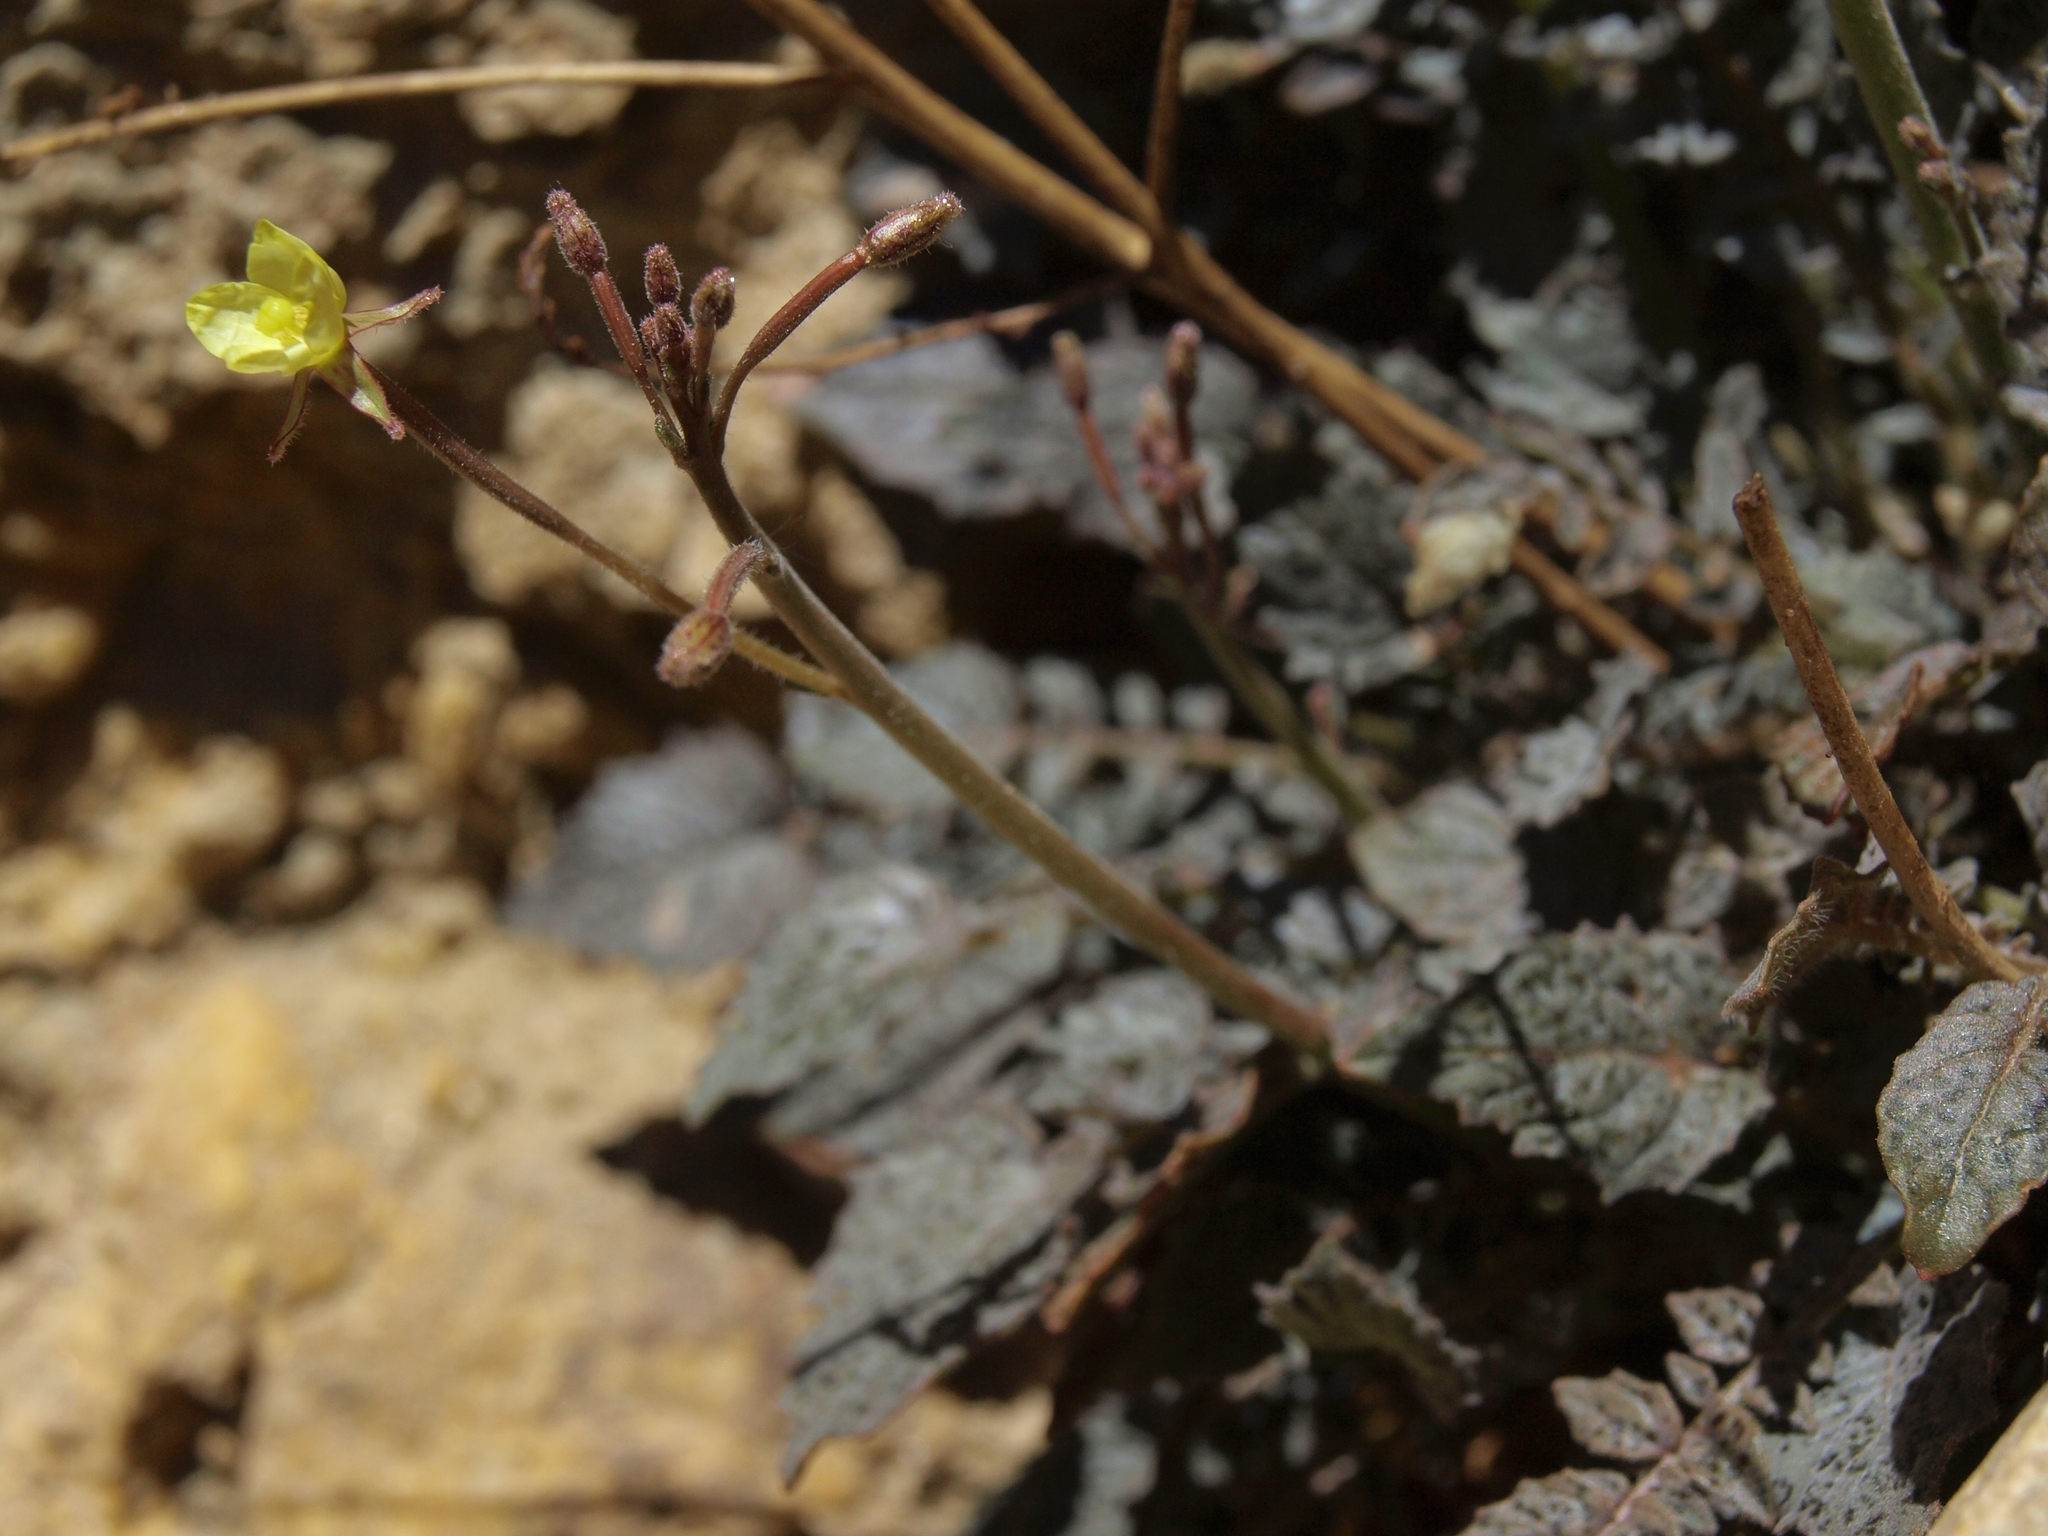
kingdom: Plantae
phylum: Tracheophyta
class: Magnoliopsida
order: Myrtales
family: Onagraceae
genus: Chylismia
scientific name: Chylismia walkeri
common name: Walker's suncup
